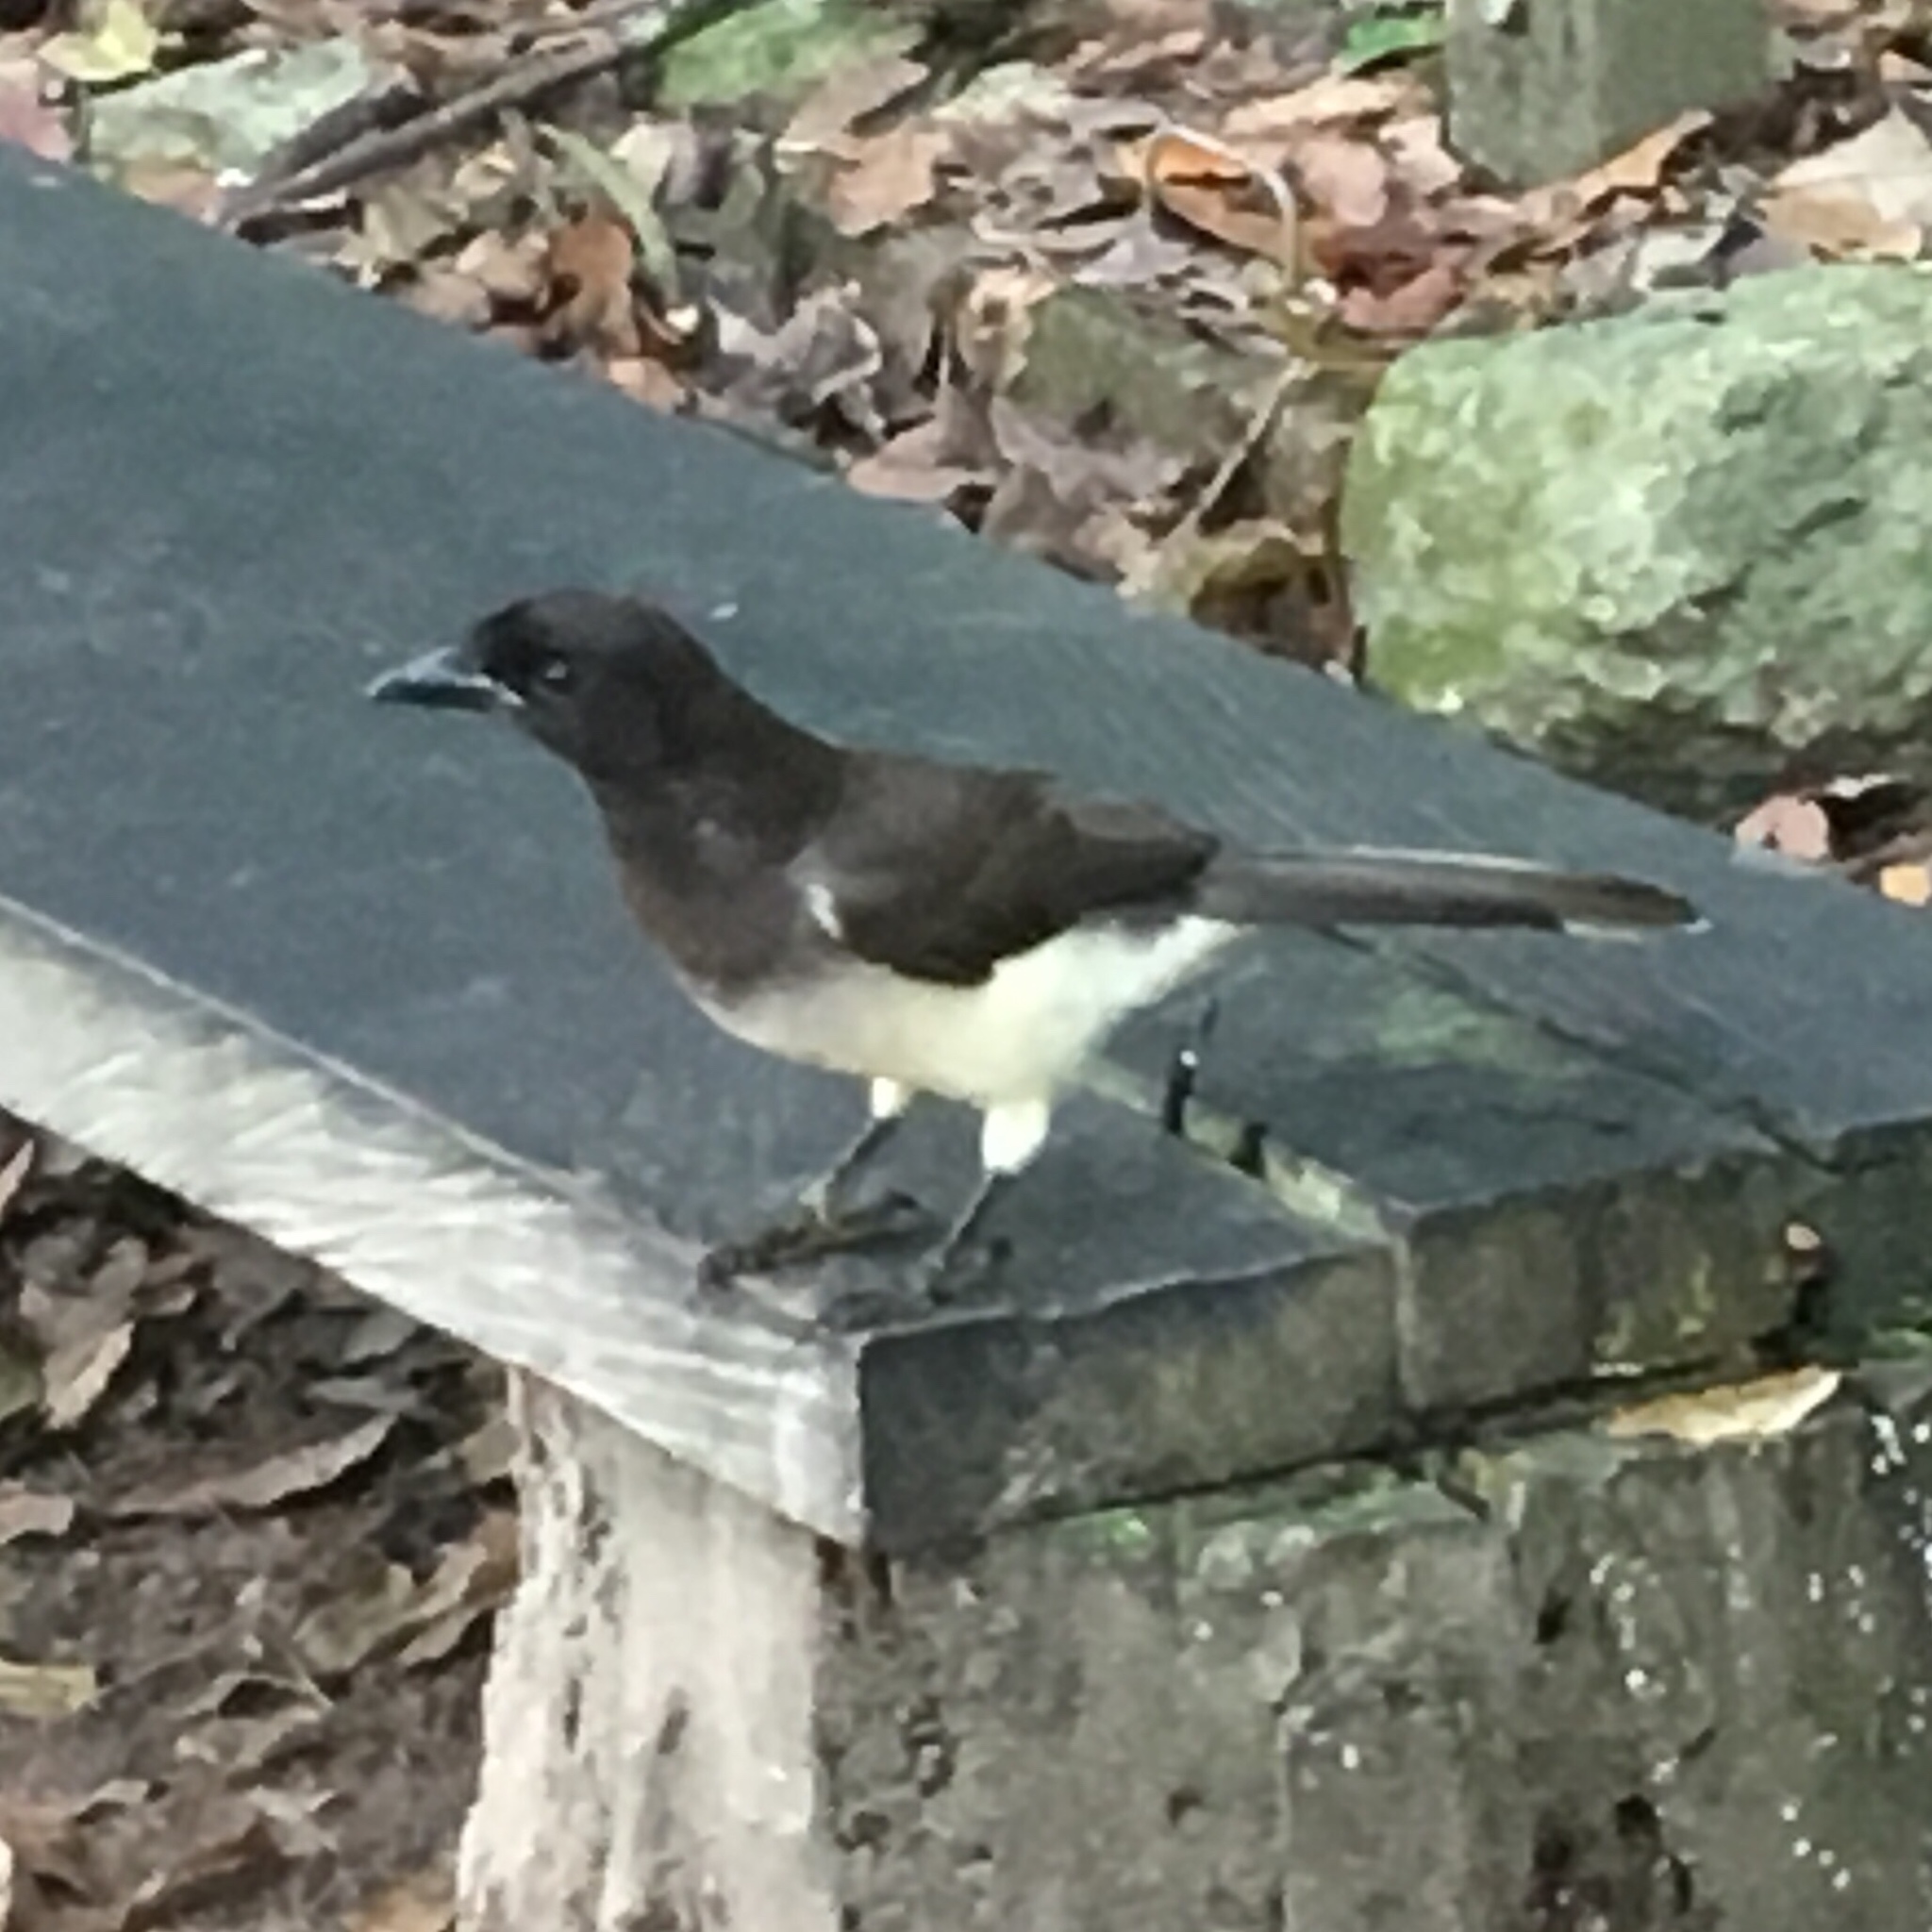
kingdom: Animalia
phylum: Chordata
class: Aves
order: Passeriformes
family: Corvidae
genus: Psilorhinus
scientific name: Psilorhinus morio
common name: Brown jay
